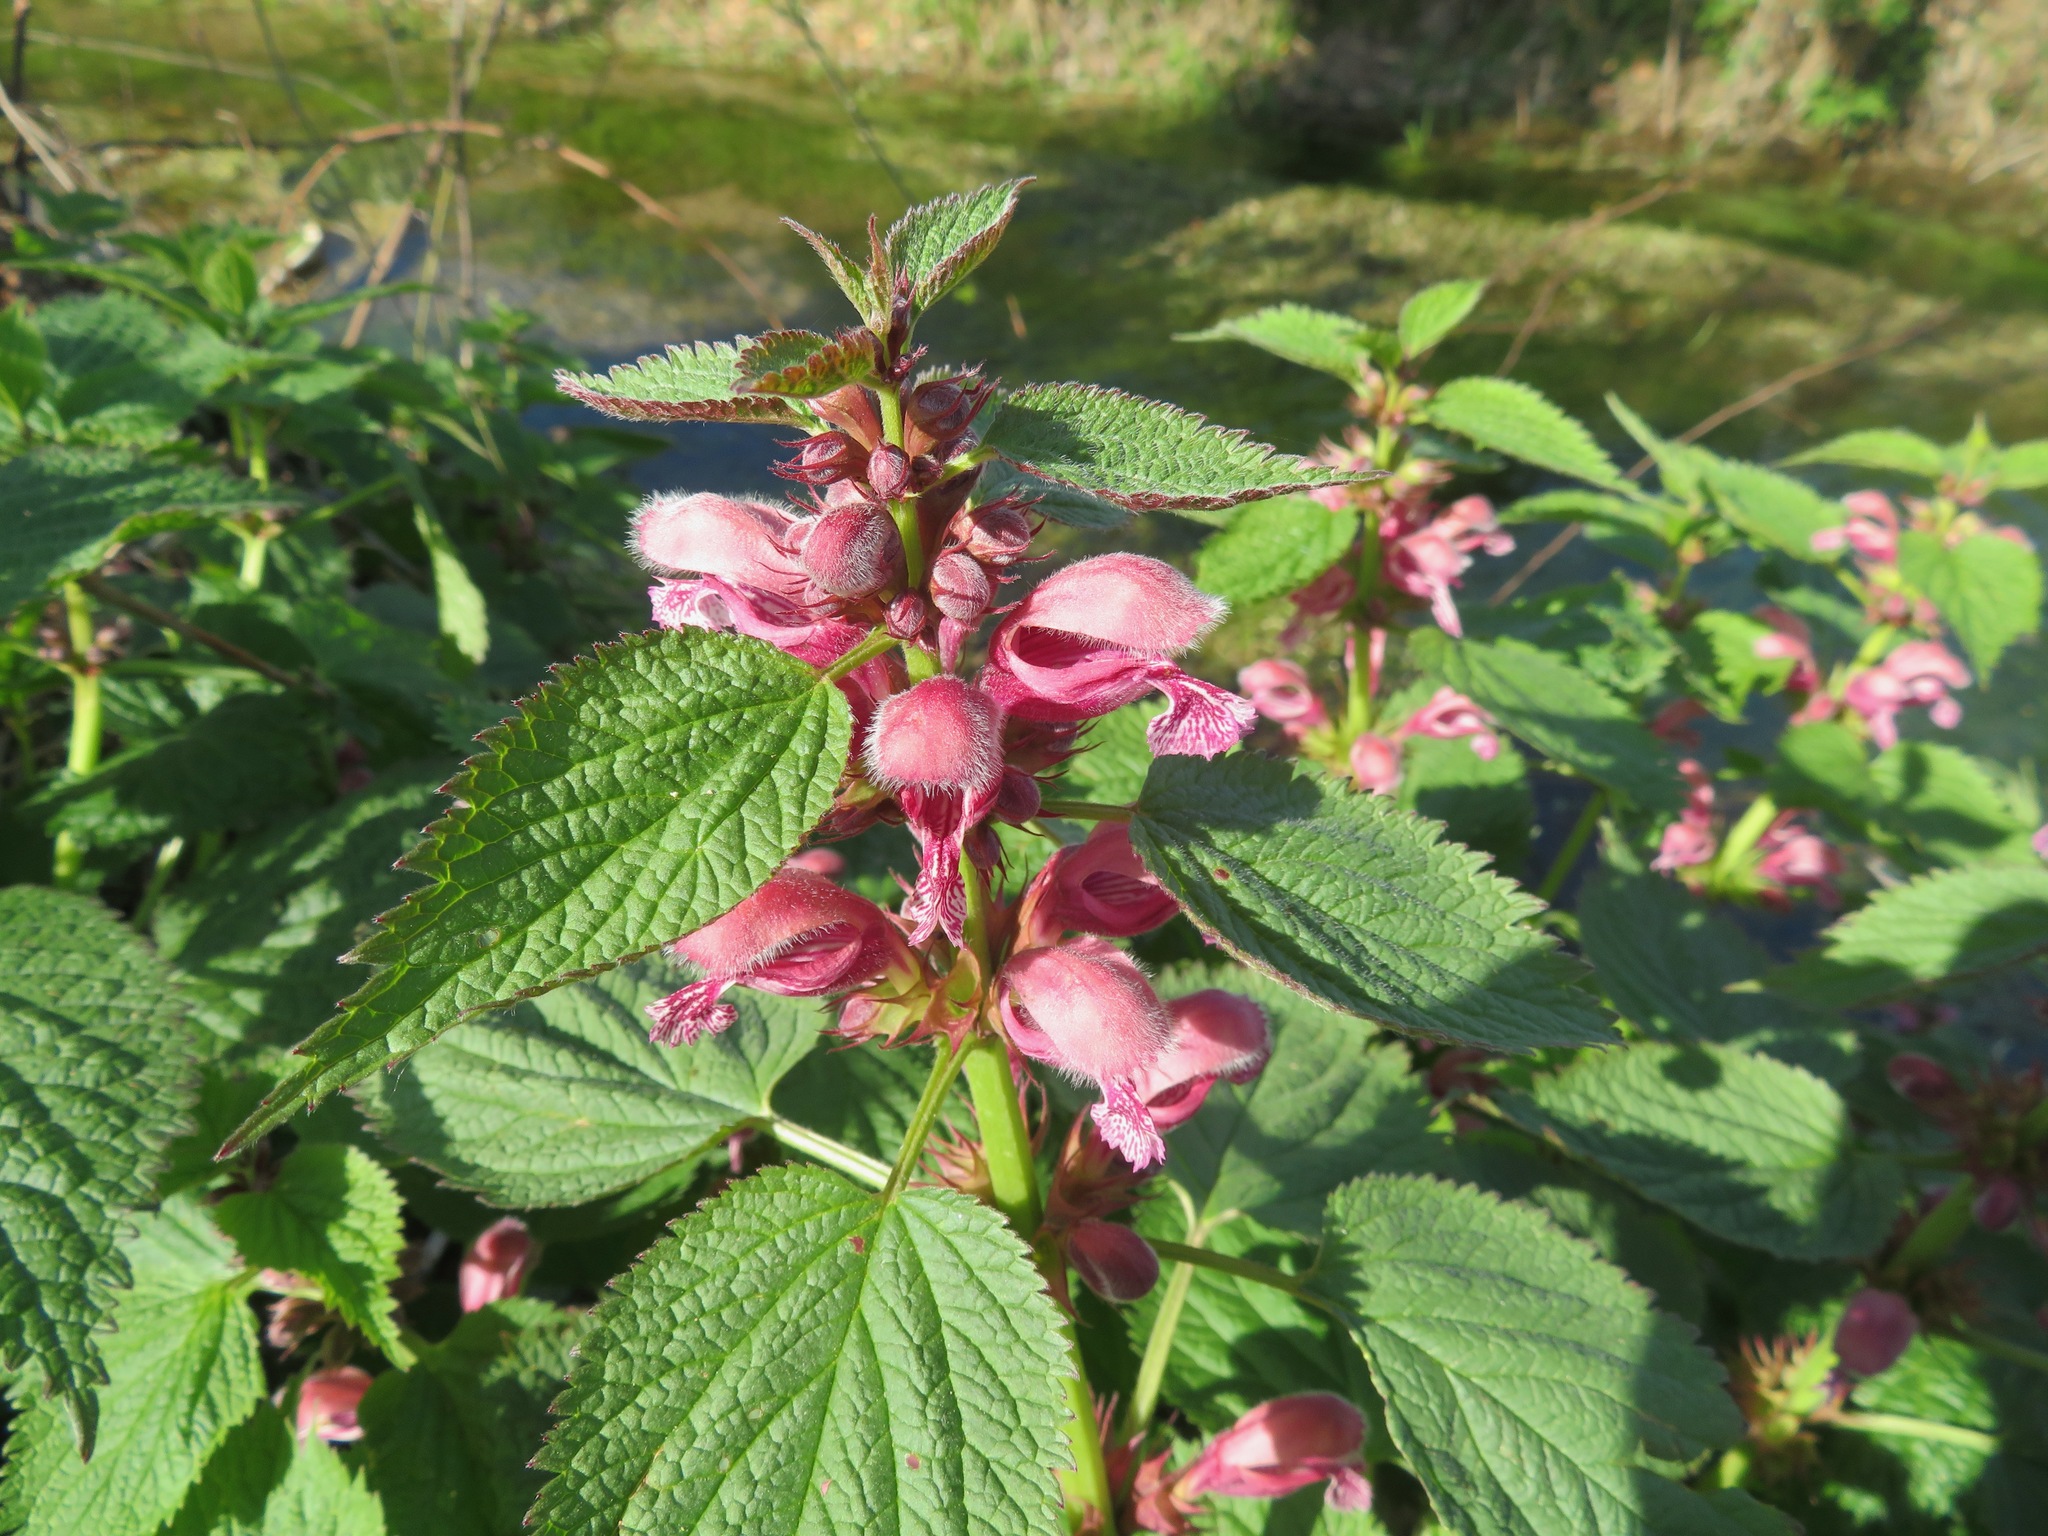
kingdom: Plantae
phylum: Tracheophyta
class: Magnoliopsida
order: Lamiales
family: Lamiaceae
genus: Lamium
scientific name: Lamium orvala
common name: Balm-leaved archangel
